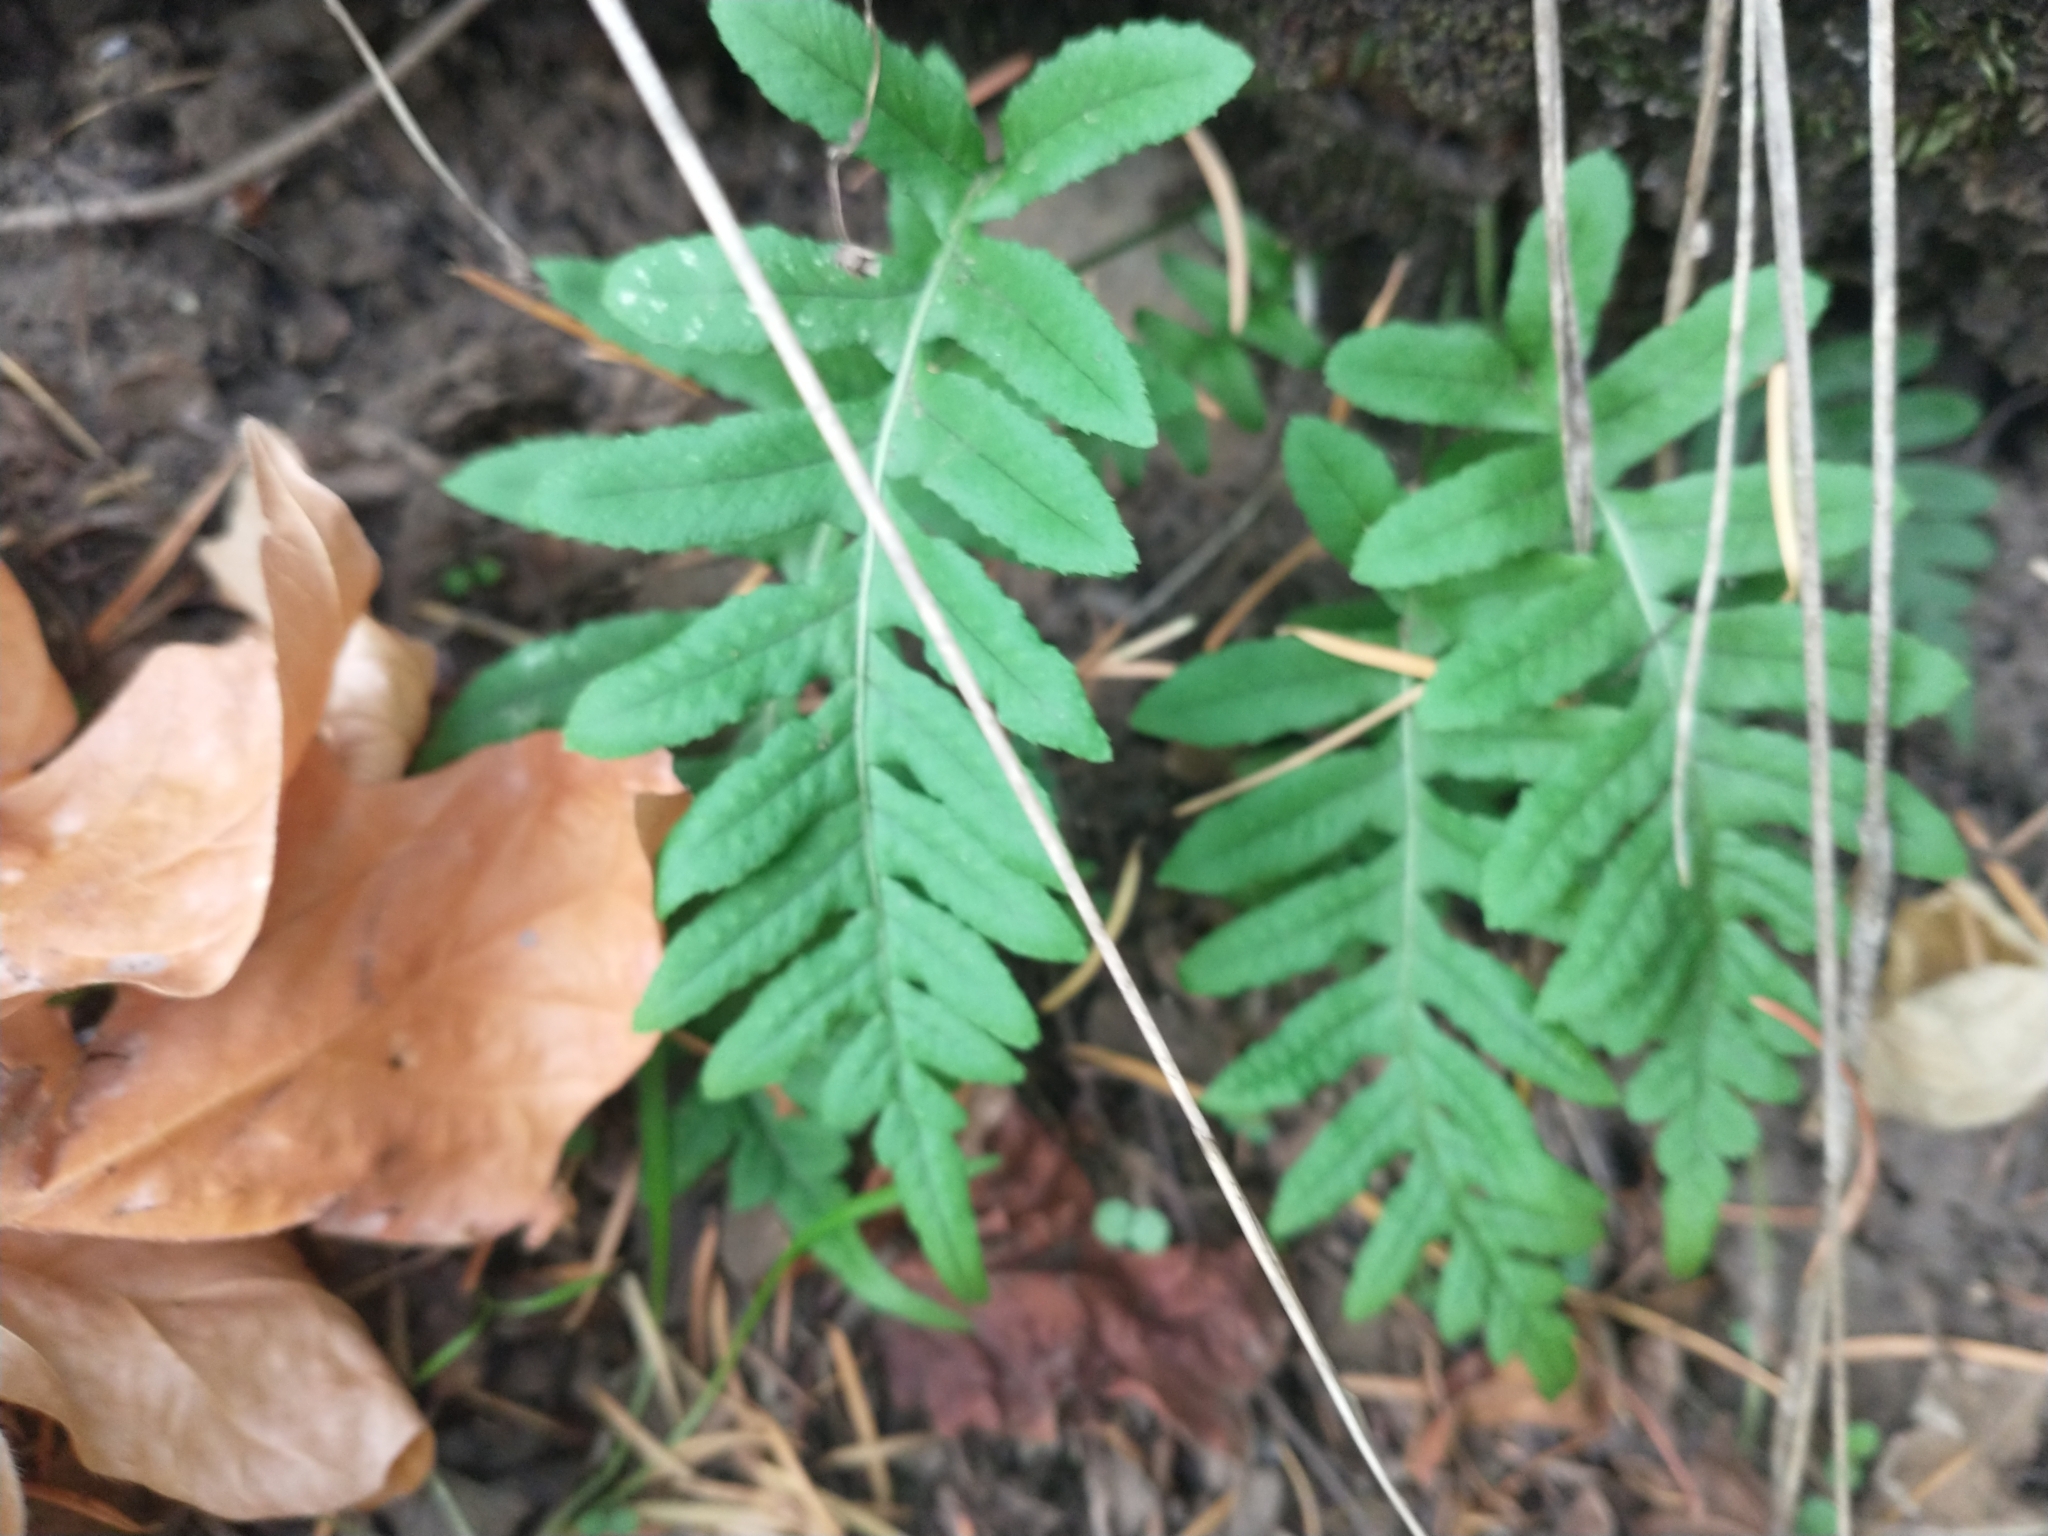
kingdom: Plantae
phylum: Tracheophyta
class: Polypodiopsida
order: Polypodiales
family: Polypodiaceae
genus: Polypodium
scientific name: Polypodium glycyrrhiza
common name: Licorice fern
